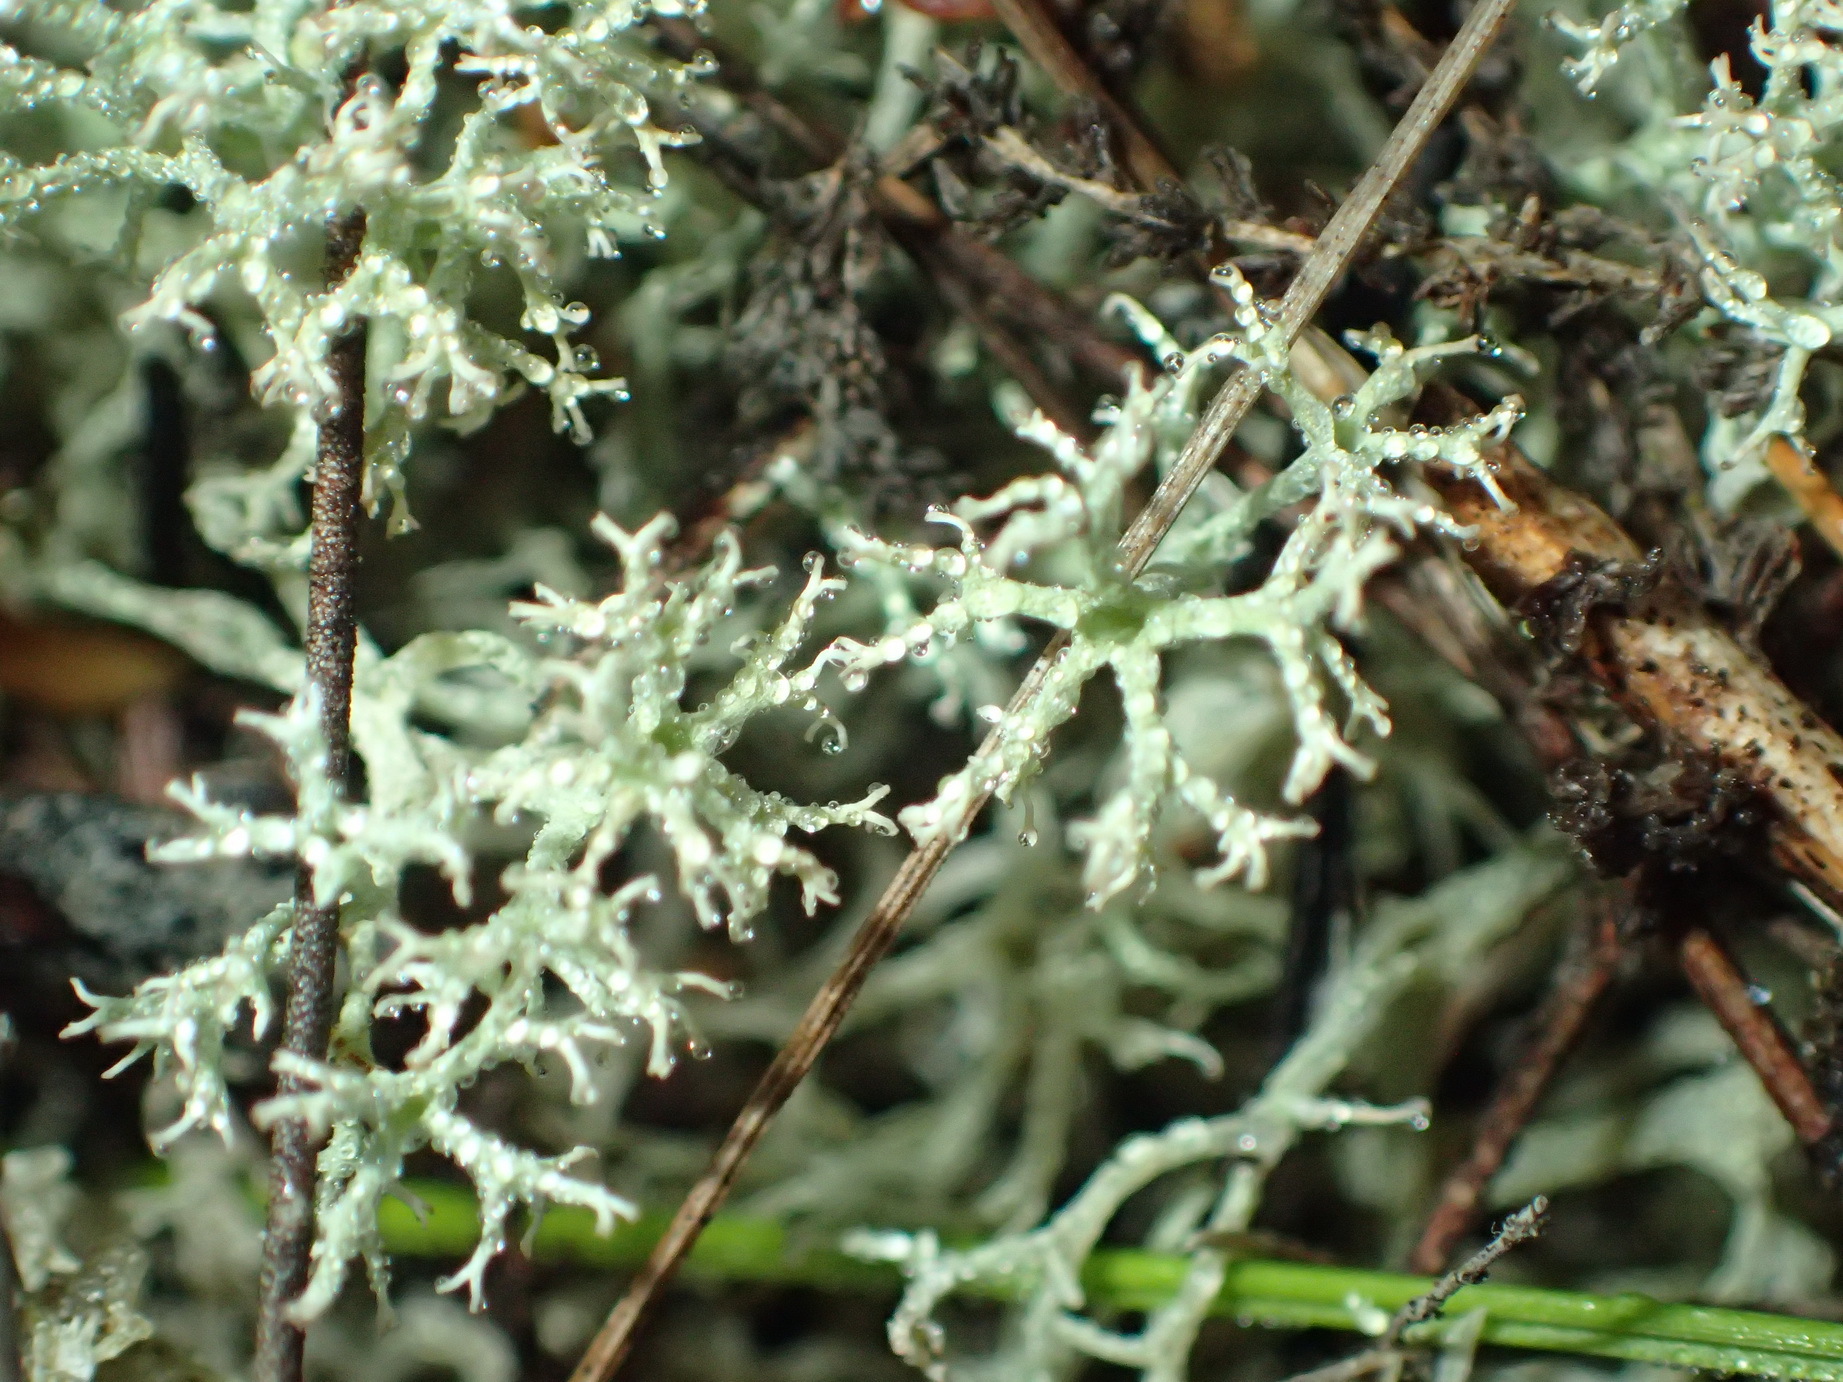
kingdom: Fungi
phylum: Ascomycota
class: Lecanoromycetes
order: Lecanorales
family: Cladoniaceae
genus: Cladonia
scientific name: Cladonia confusa
